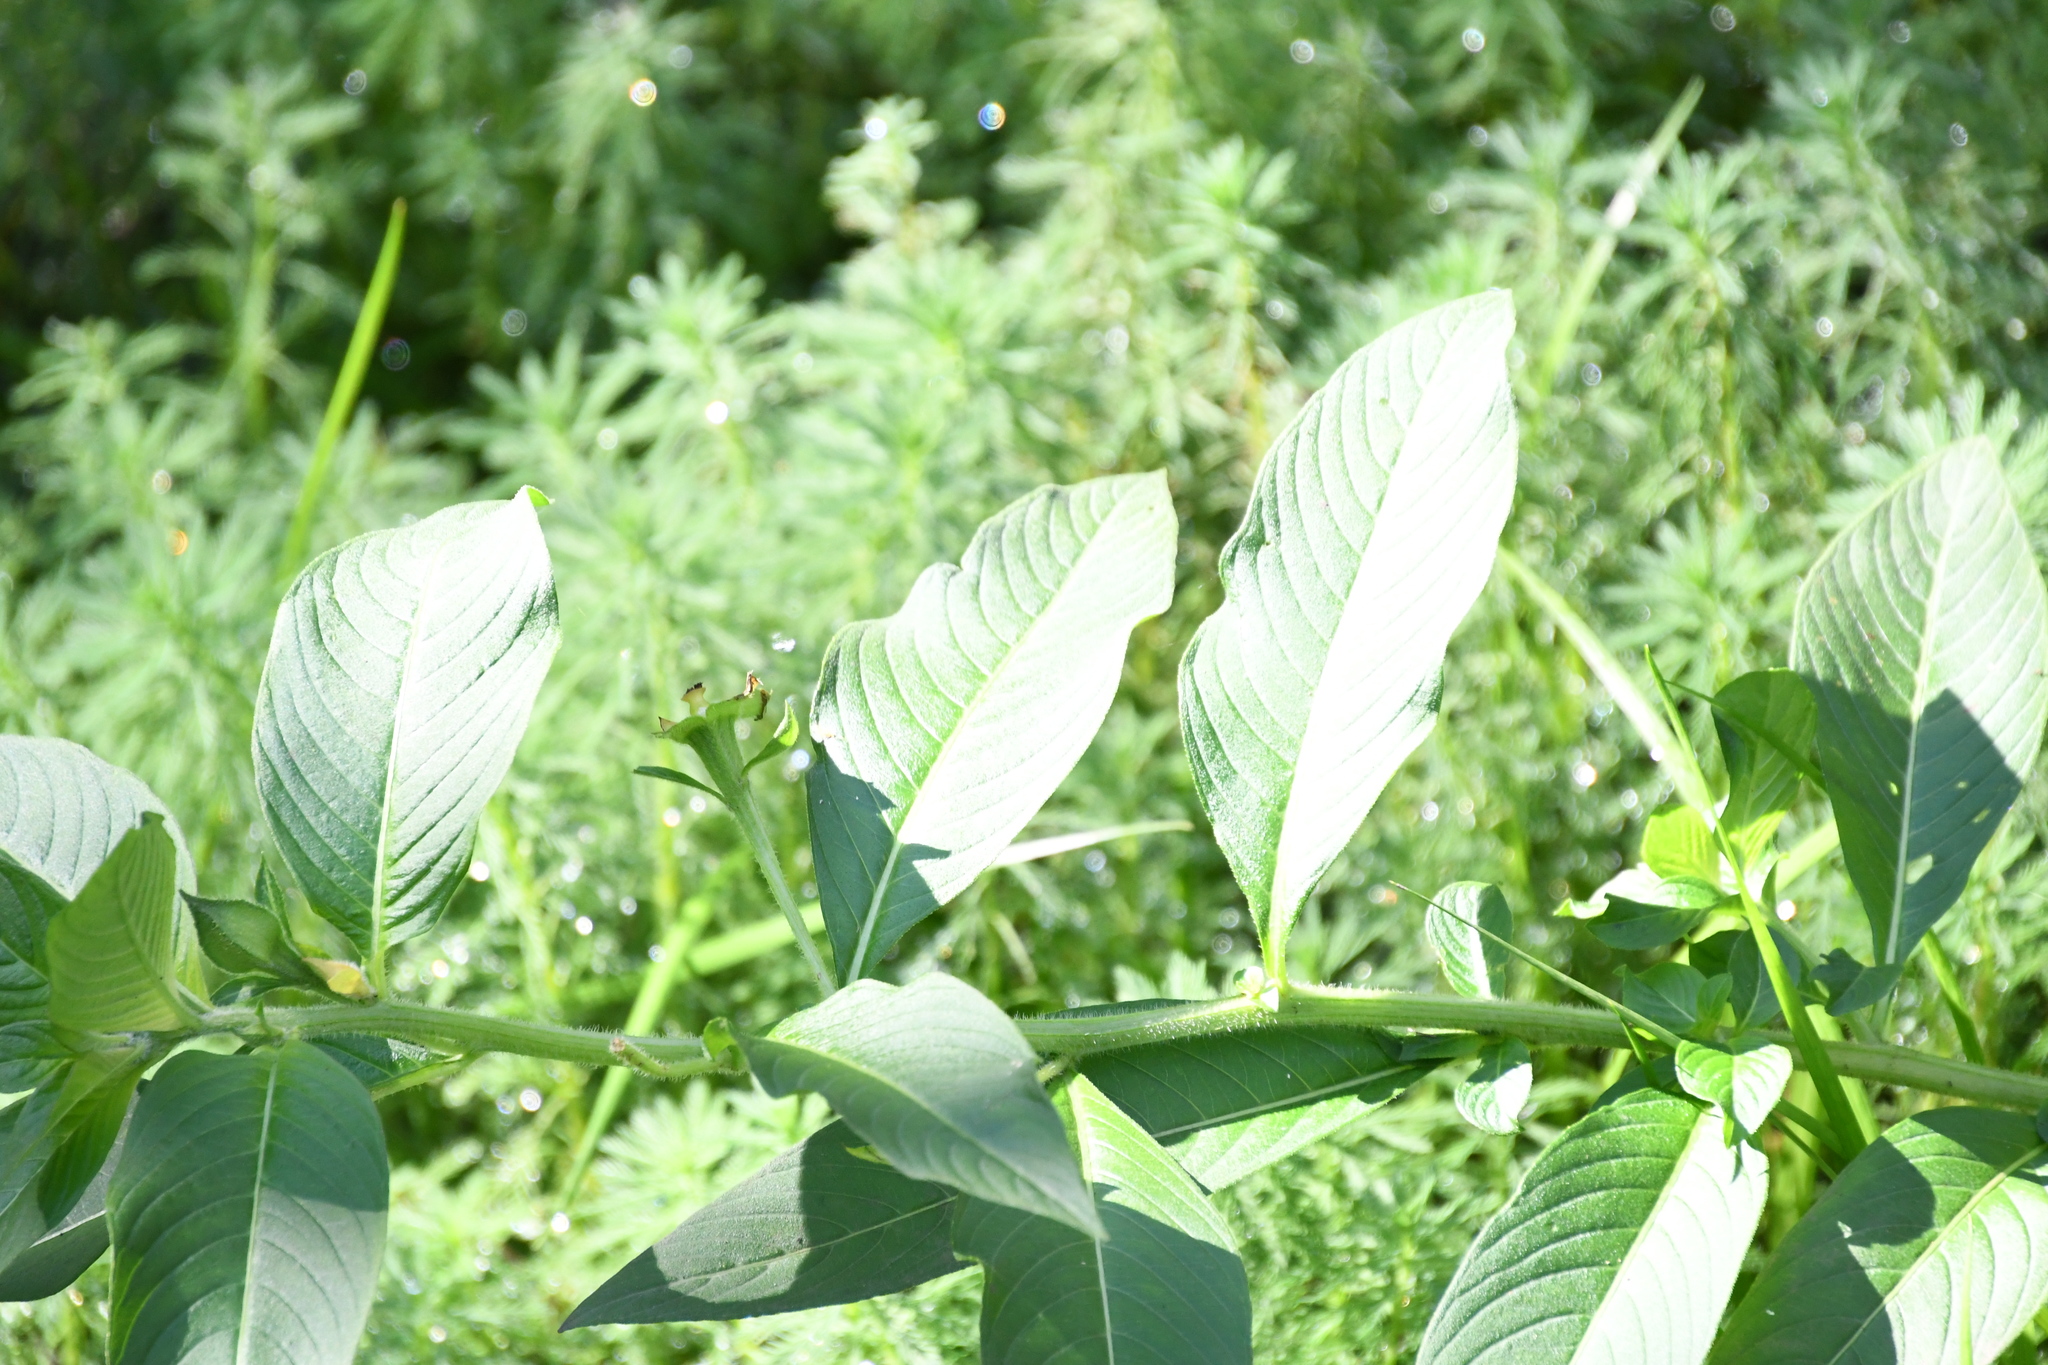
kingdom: Plantae
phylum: Tracheophyta
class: Magnoliopsida
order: Myrtales
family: Onagraceae
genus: Ludwigia
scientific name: Ludwigia peruviana
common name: Peruvian primrose-willow
